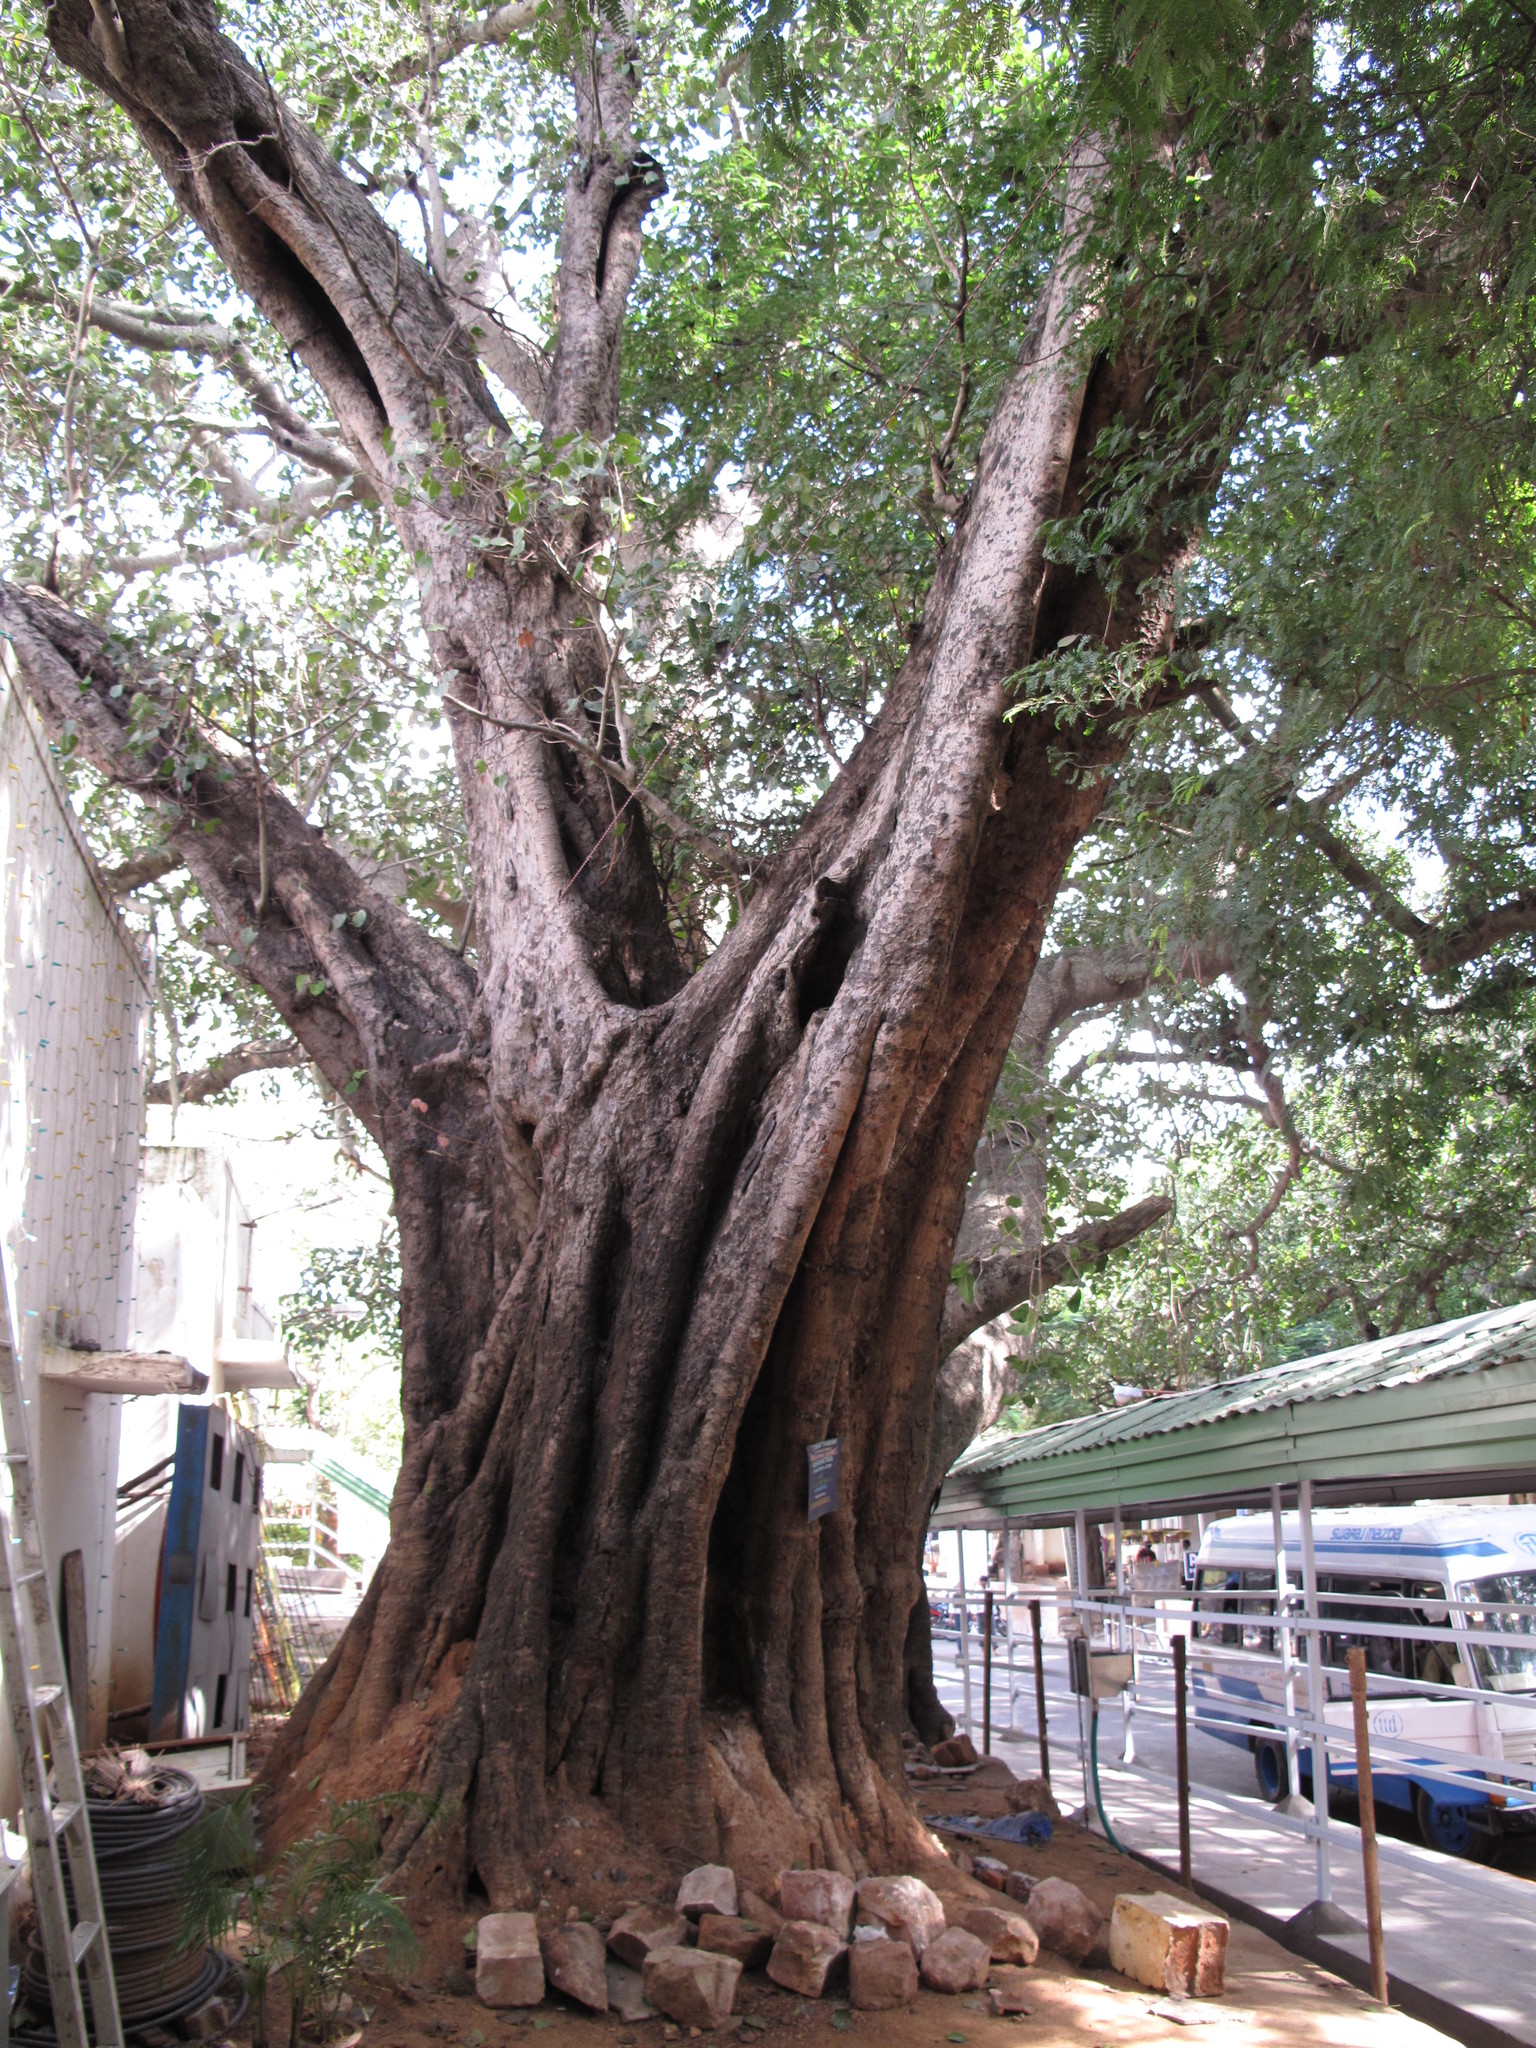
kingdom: Plantae
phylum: Tracheophyta
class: Magnoliopsida
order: Rosales
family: Moraceae
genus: Ficus
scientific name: Ficus religiosa
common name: Bodhi tree
